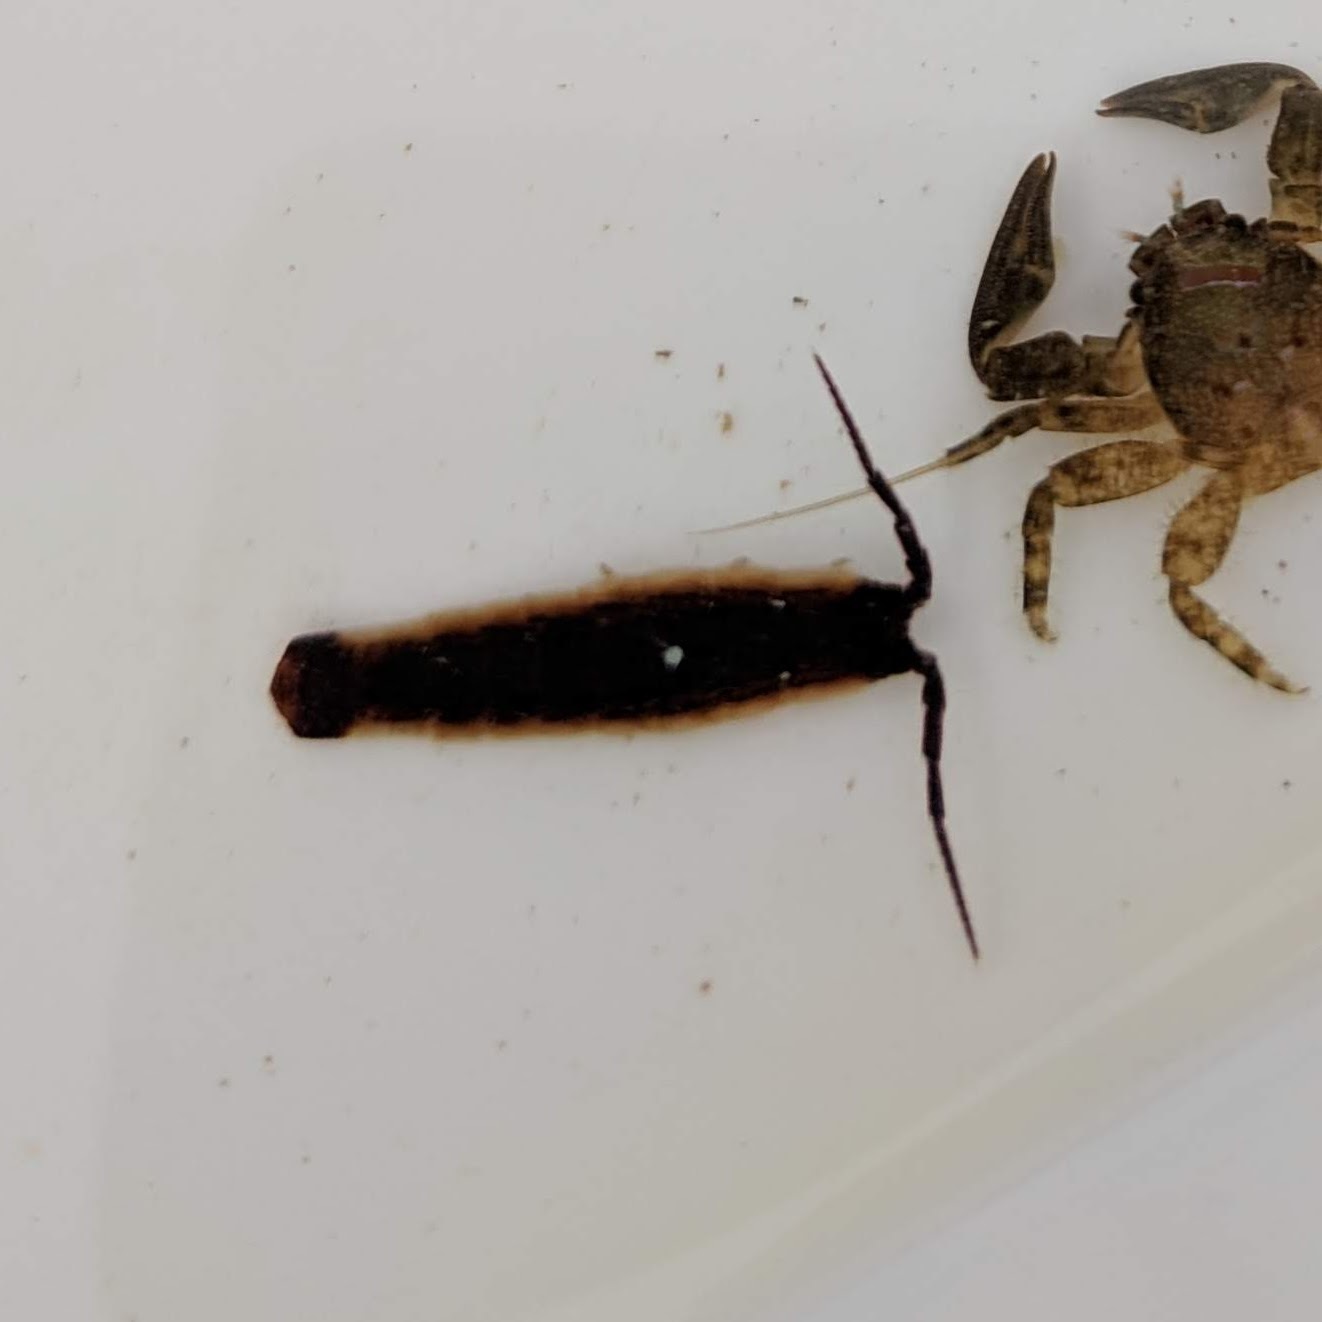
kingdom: Animalia
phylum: Arthropoda
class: Malacostraca
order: Isopoda
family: Idoteidae
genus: Idotea
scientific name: Idotea urotoma
